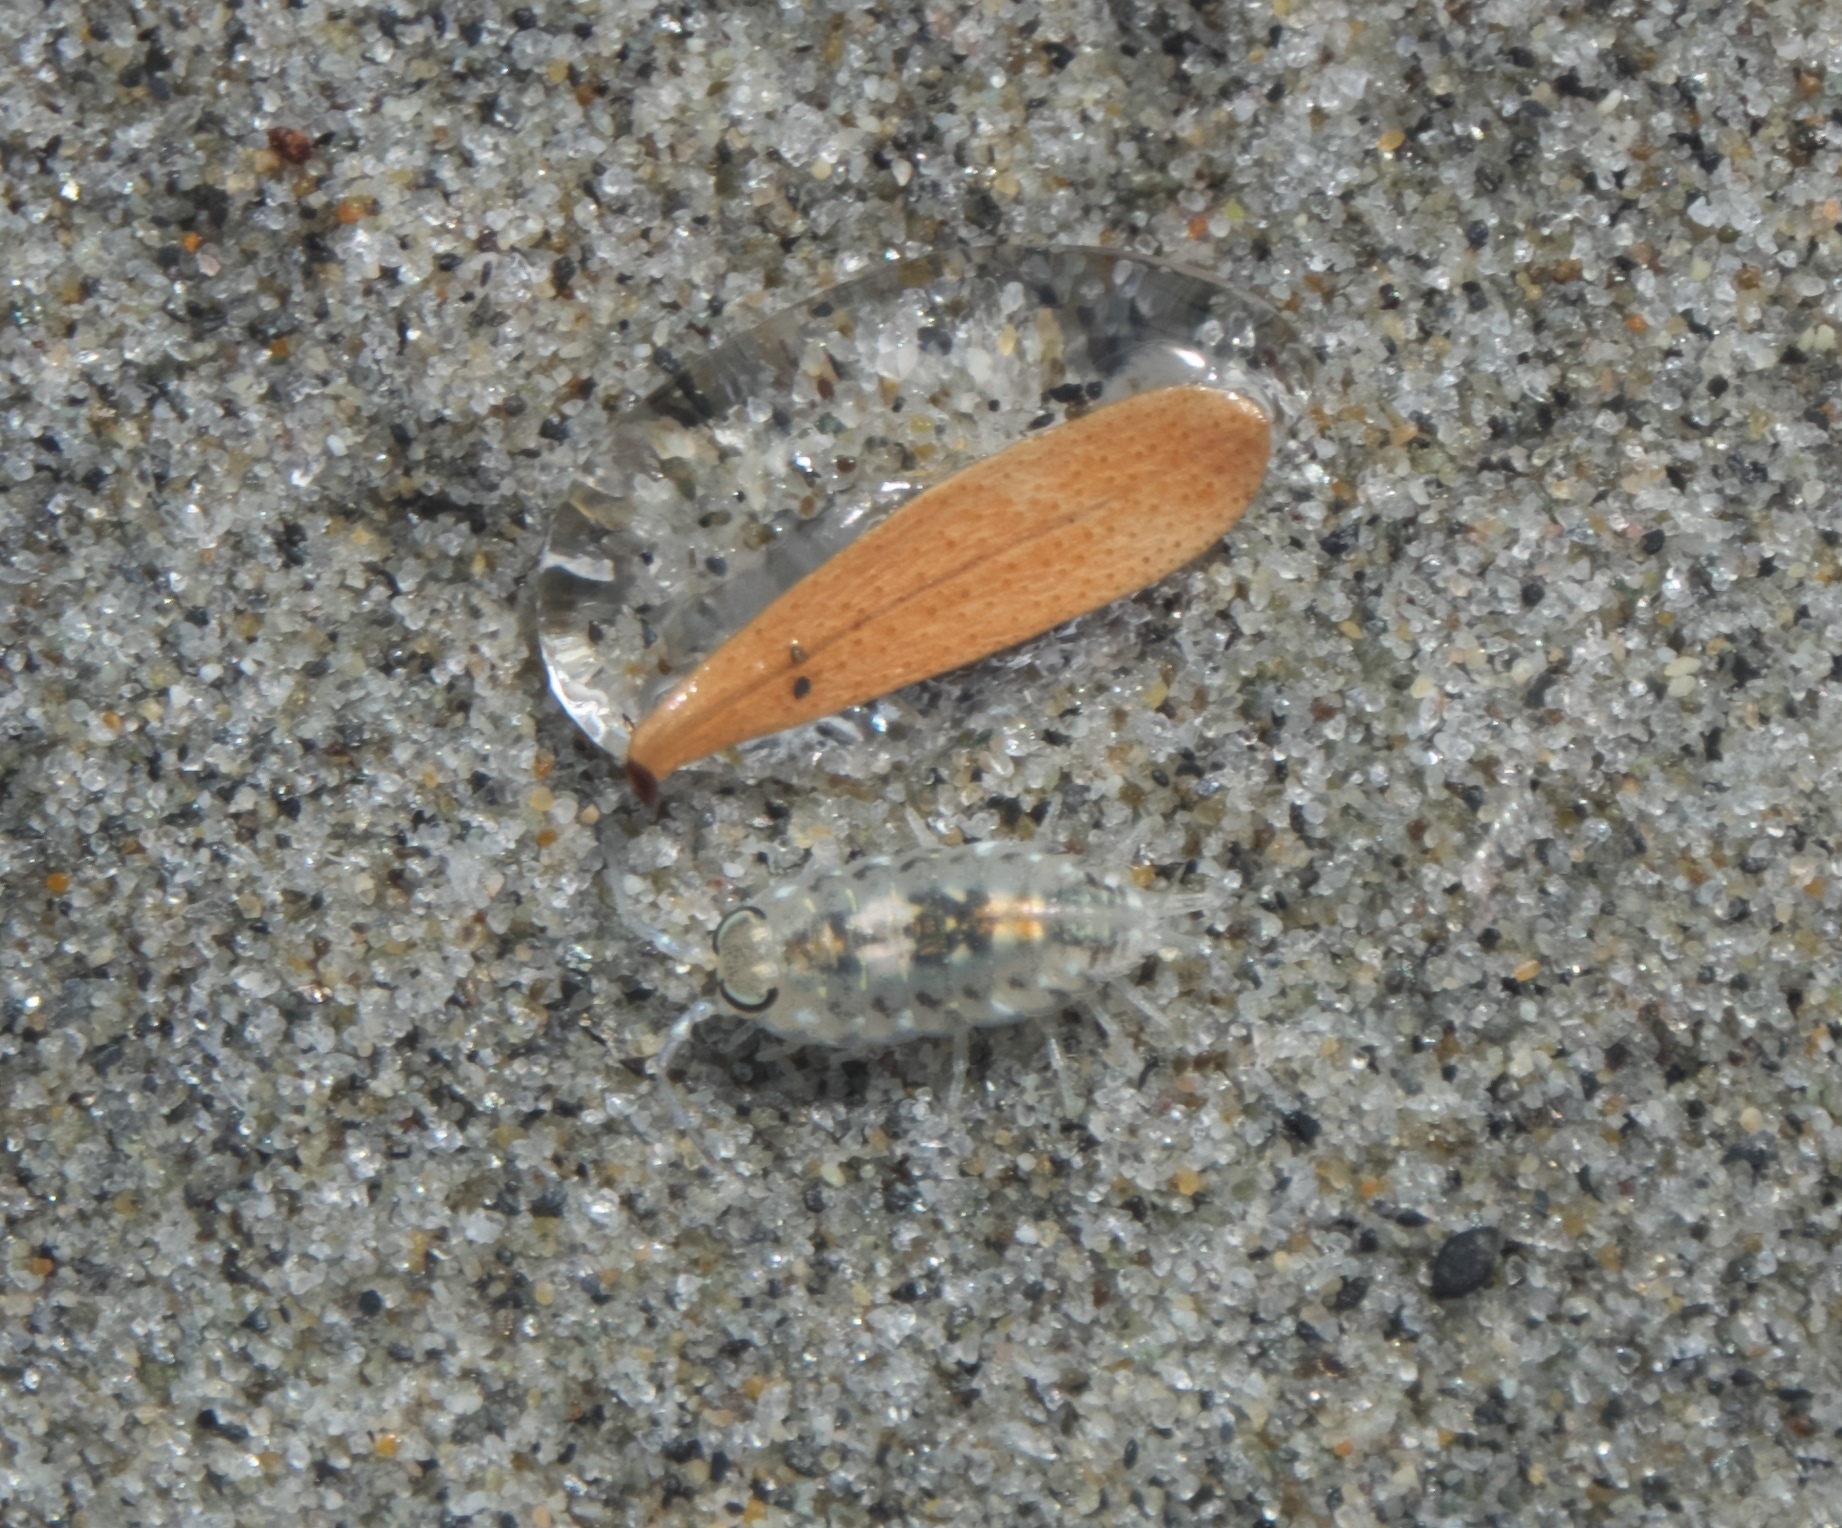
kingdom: Animalia
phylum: Arthropoda
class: Malacostraca
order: Isopoda
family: Scyphacidae
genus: Scyphax
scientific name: Scyphax ornatus
